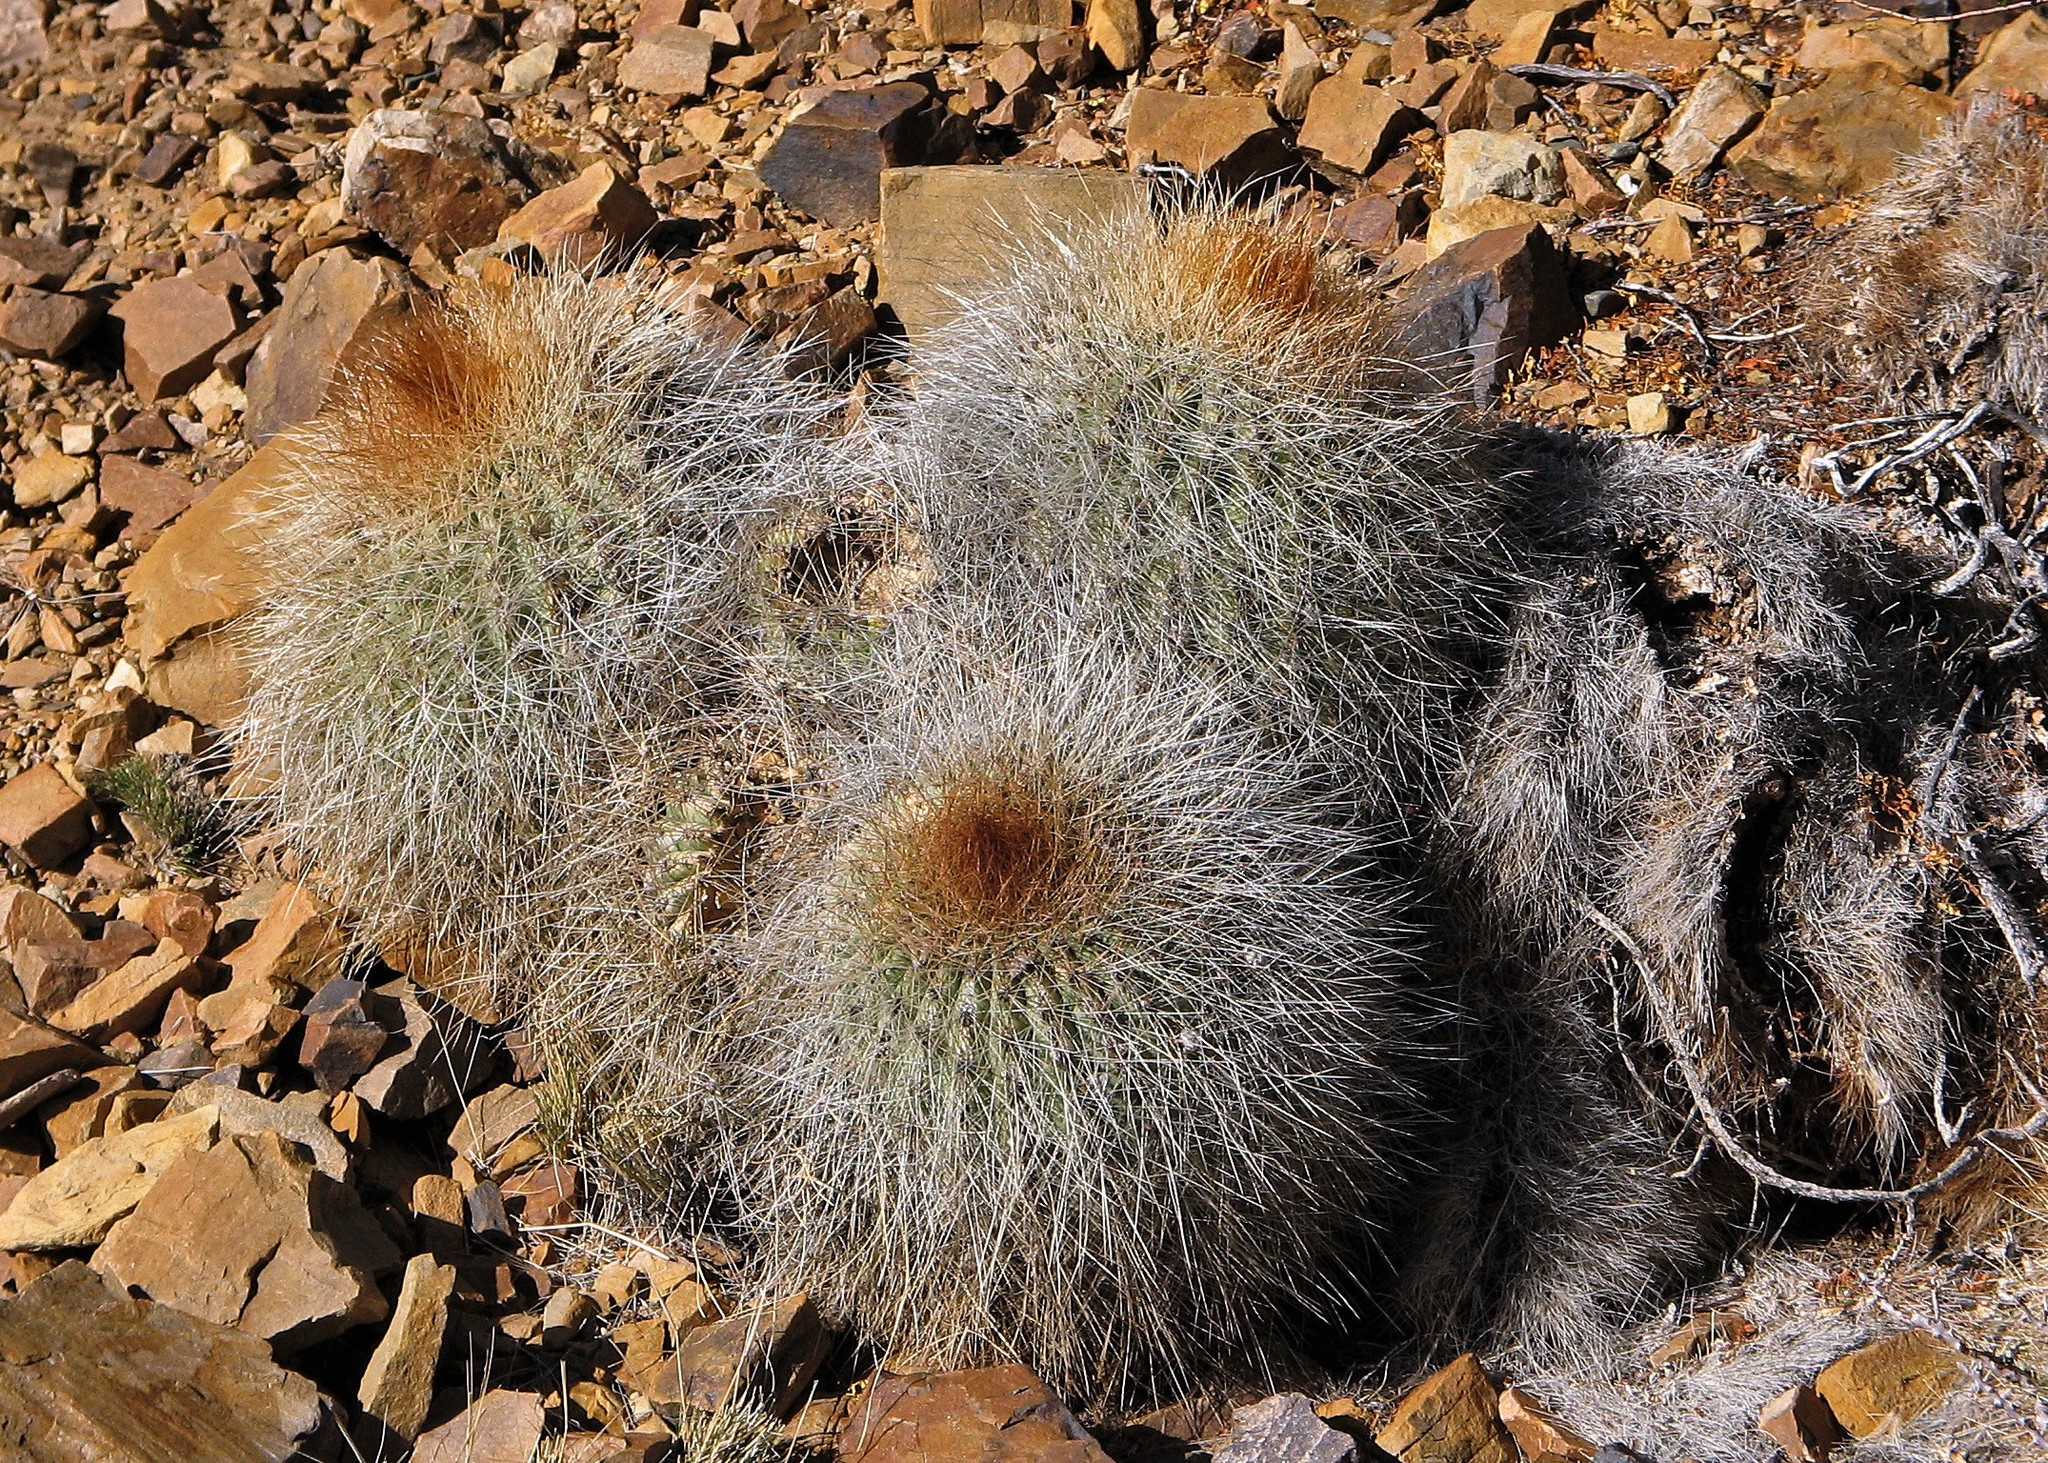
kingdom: Plantae
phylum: Tracheophyta
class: Magnoliopsida
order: Caryophyllales
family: Cactaceae
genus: Soehrensia
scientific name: Soehrensia formosa
